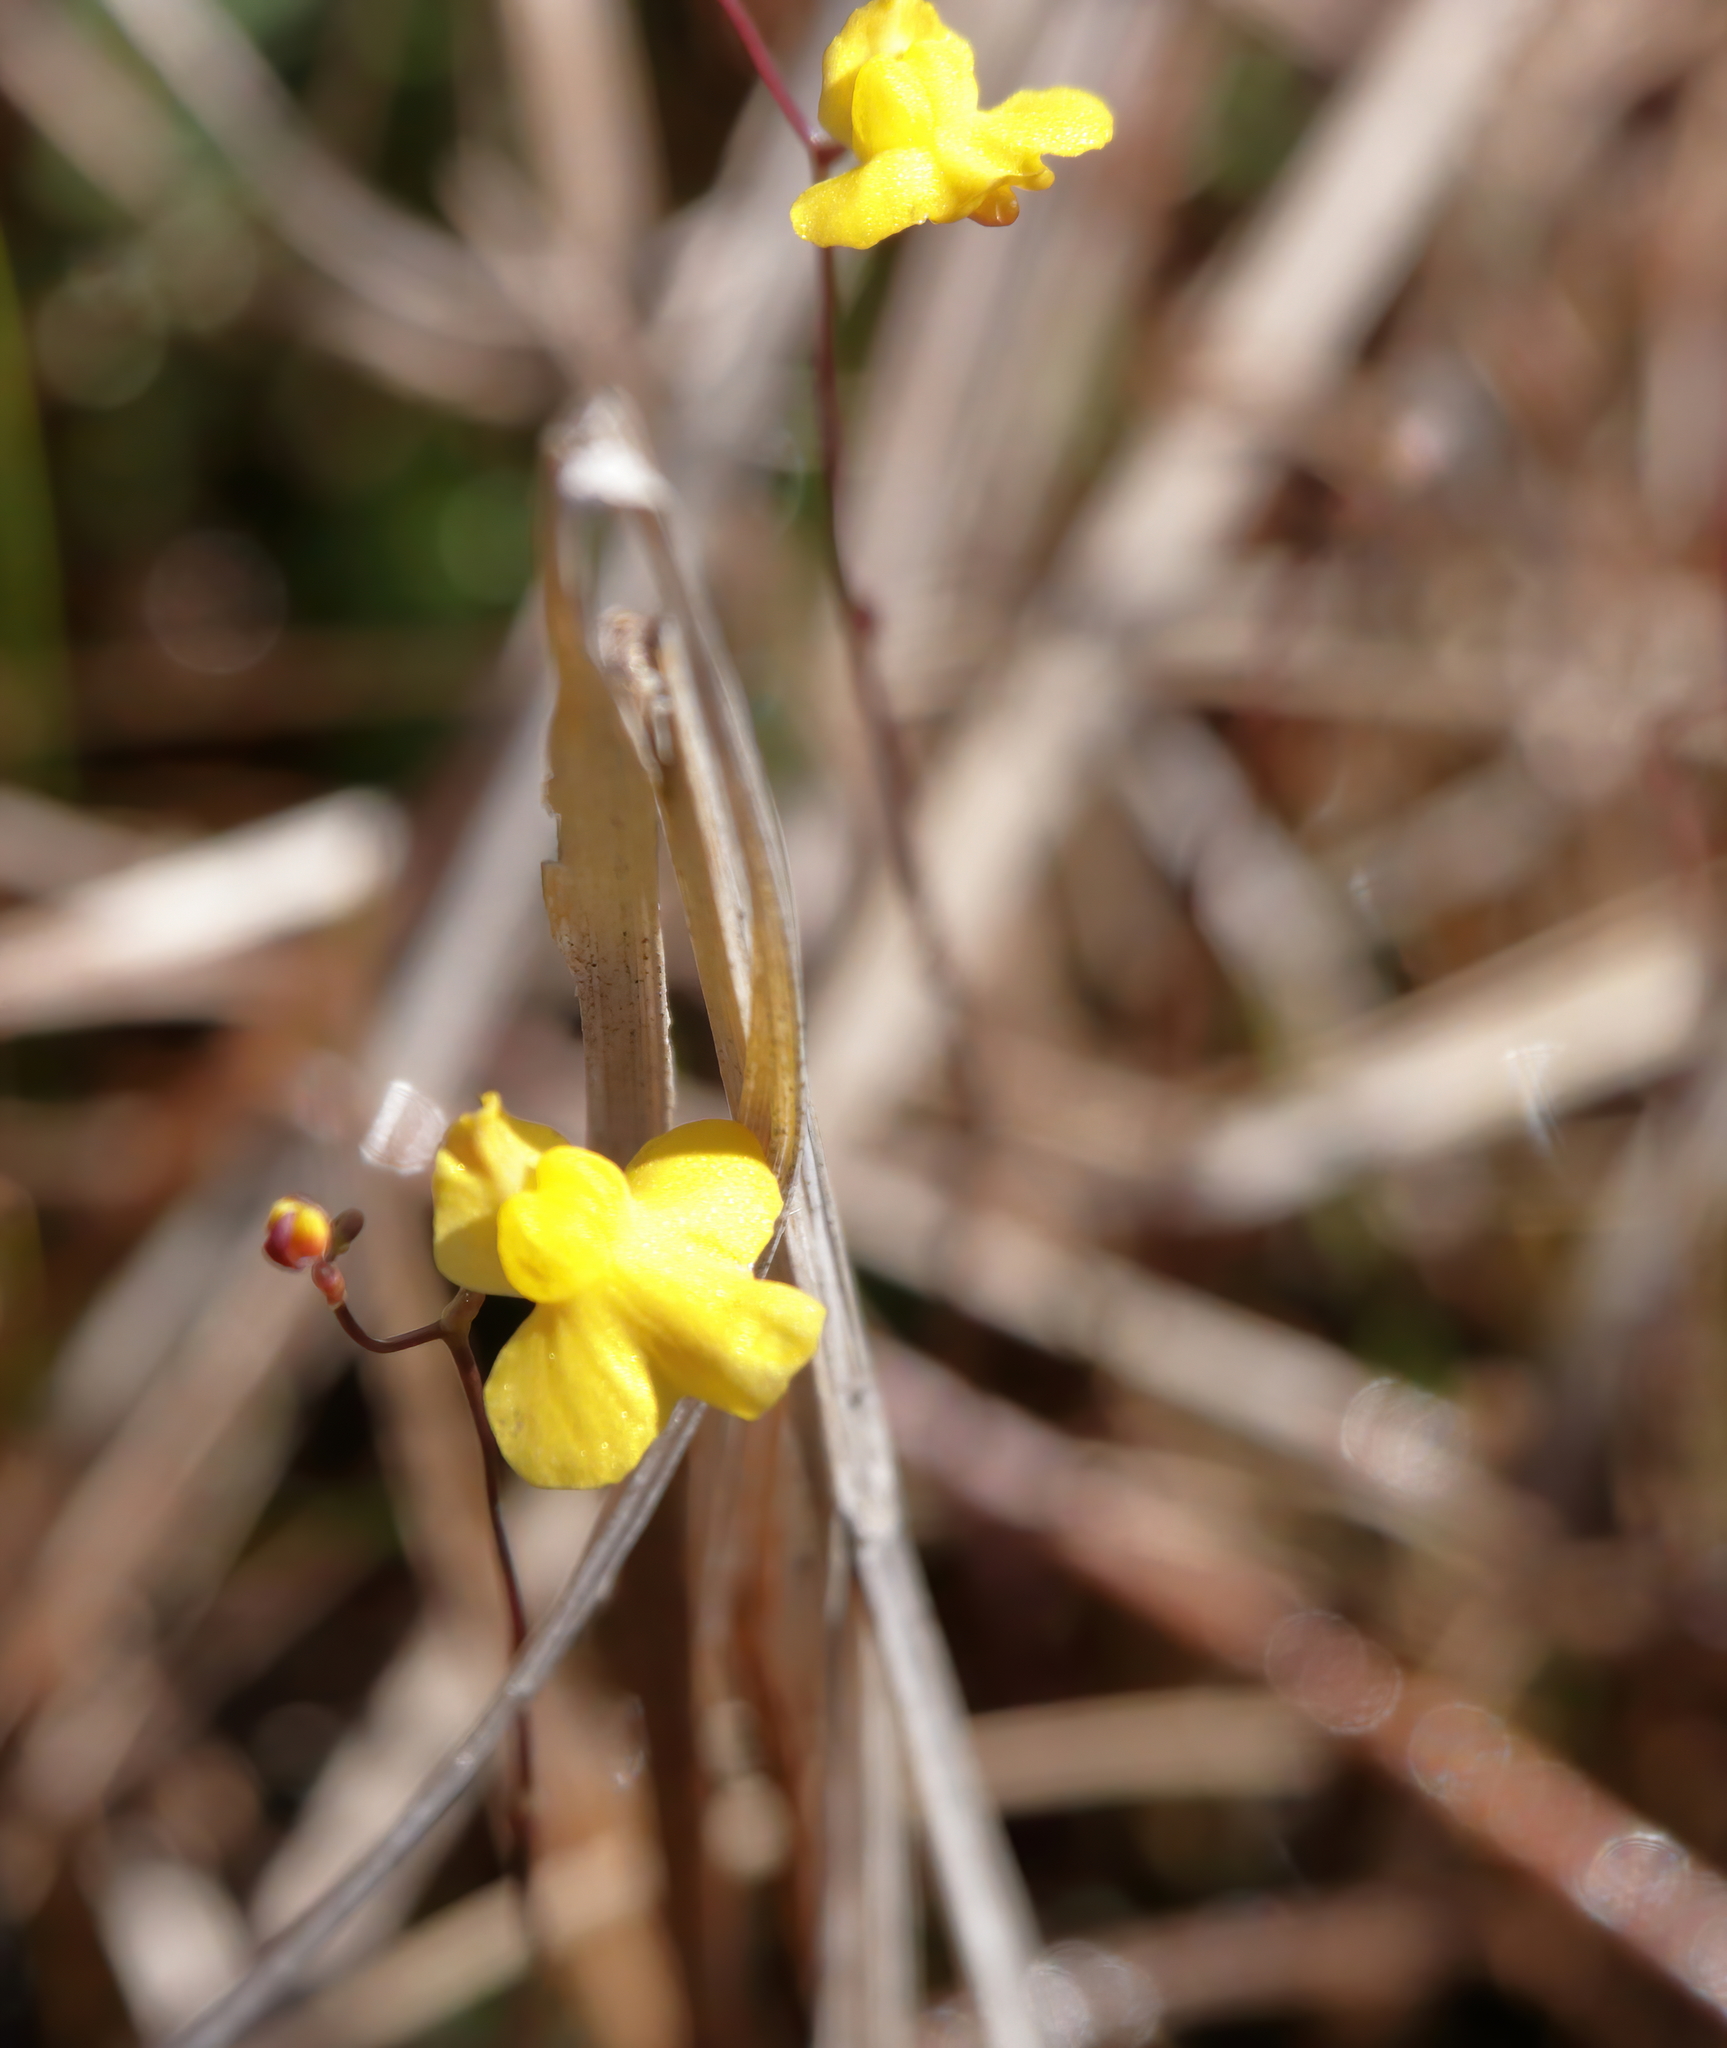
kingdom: Plantae
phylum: Tracheophyta
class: Magnoliopsida
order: Lamiales
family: Lentibulariaceae
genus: Utricularia
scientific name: Utricularia subulata
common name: Tiny bladderwort
